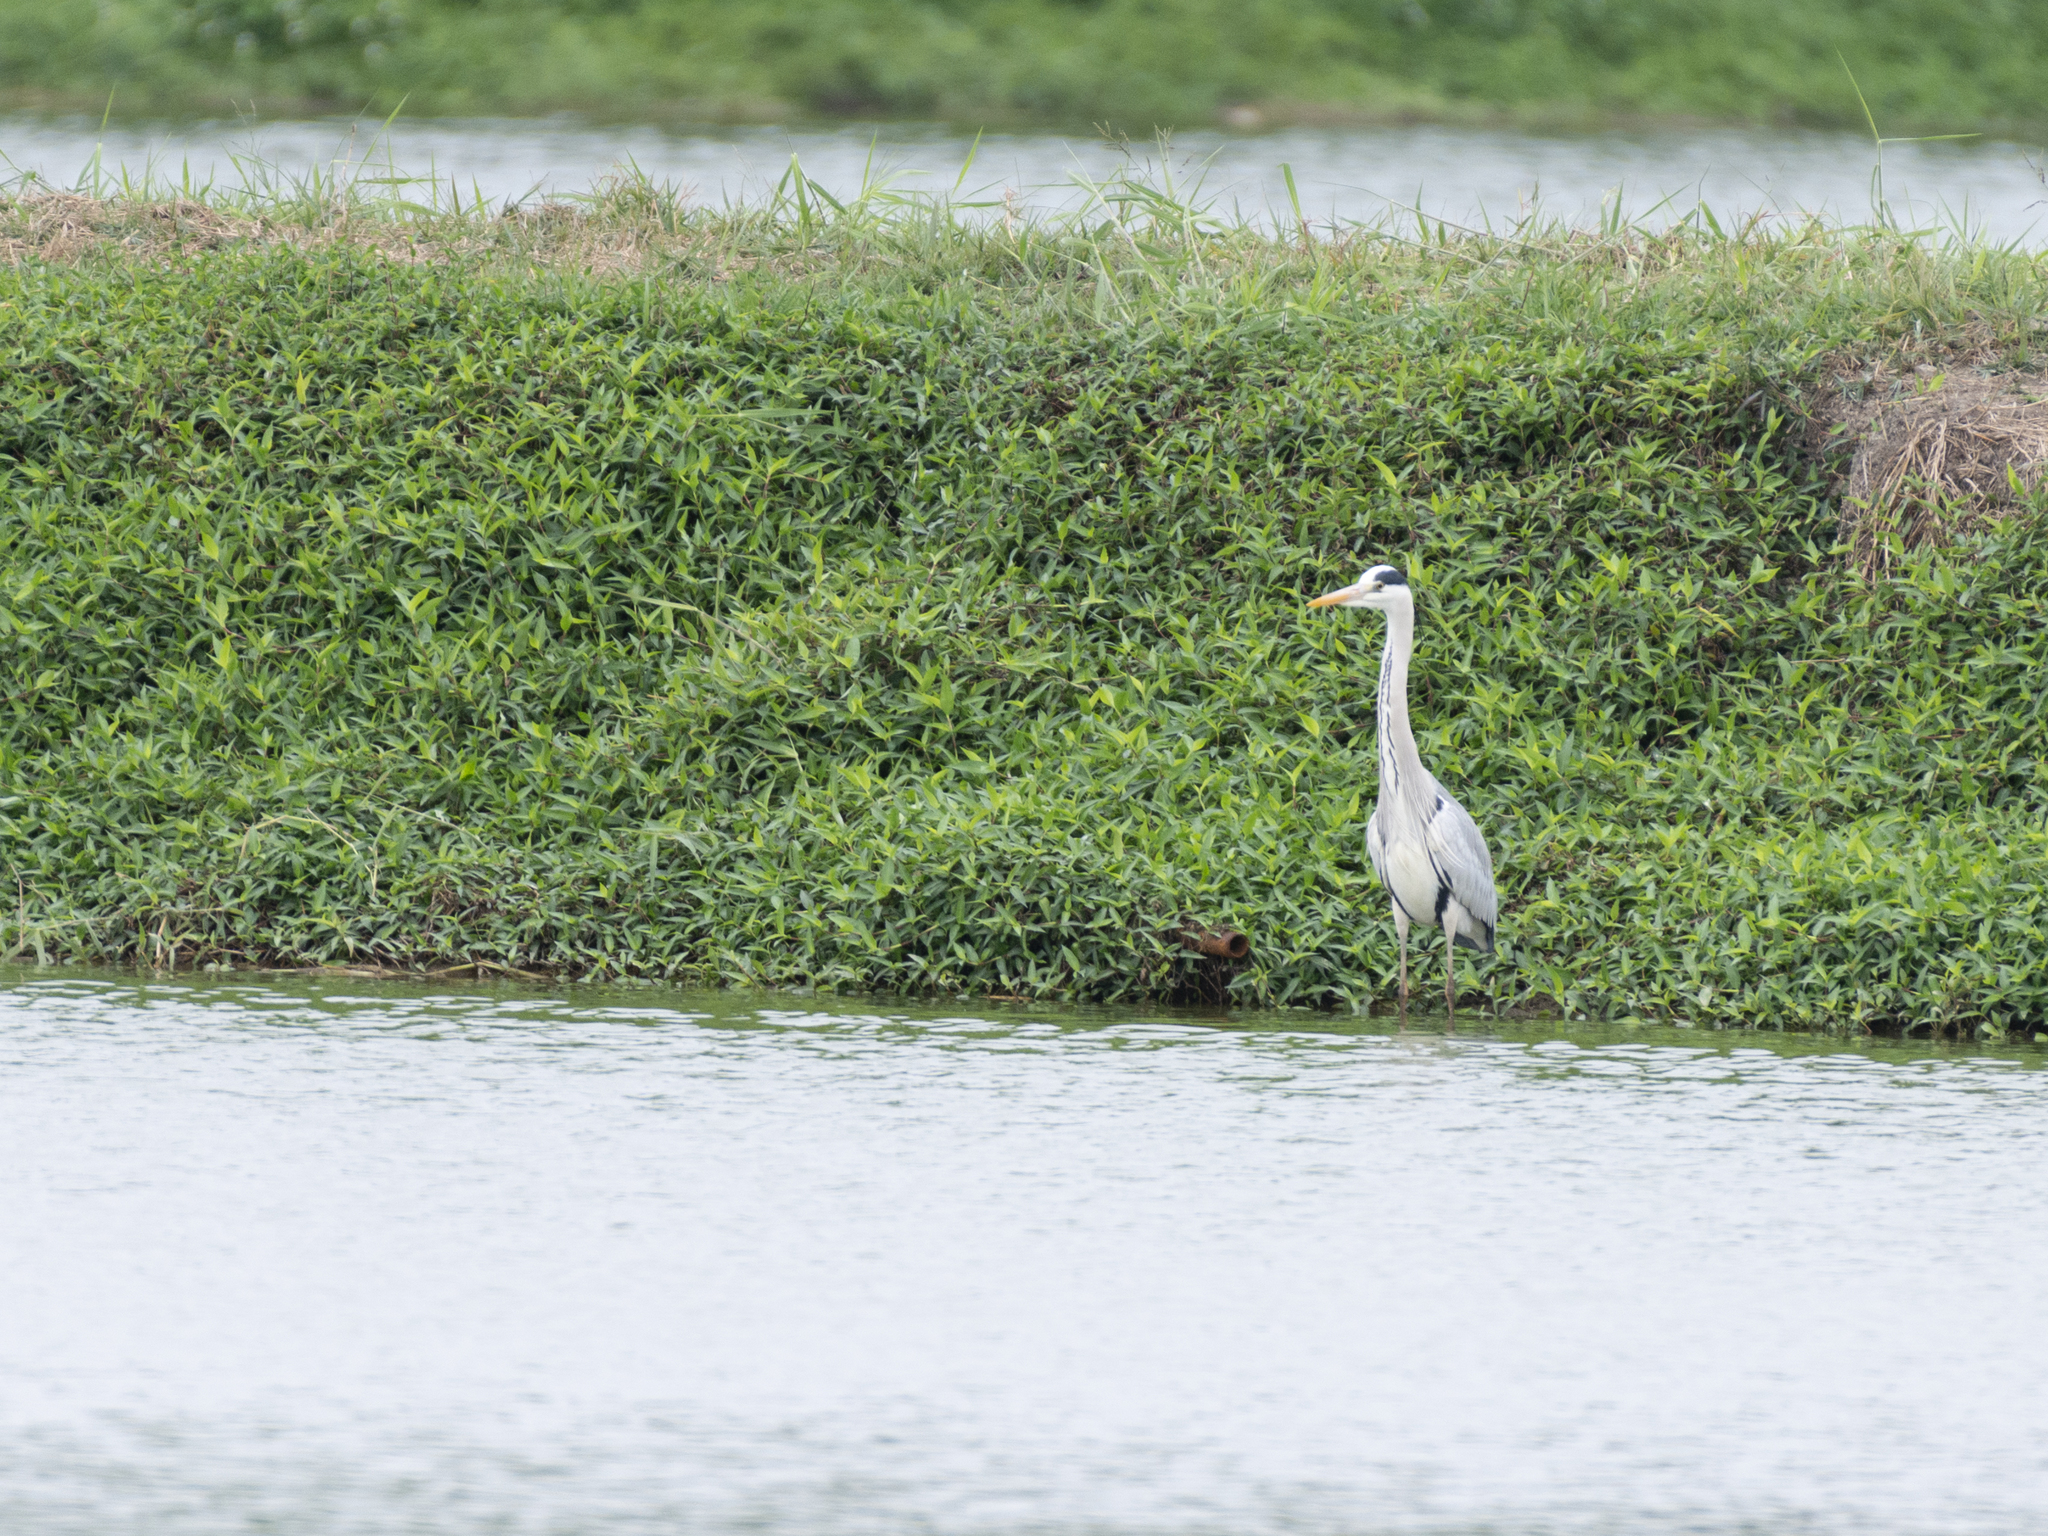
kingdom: Animalia
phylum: Chordata
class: Aves
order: Pelecaniformes
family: Ardeidae
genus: Ardea
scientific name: Ardea cinerea
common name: Grey heron
